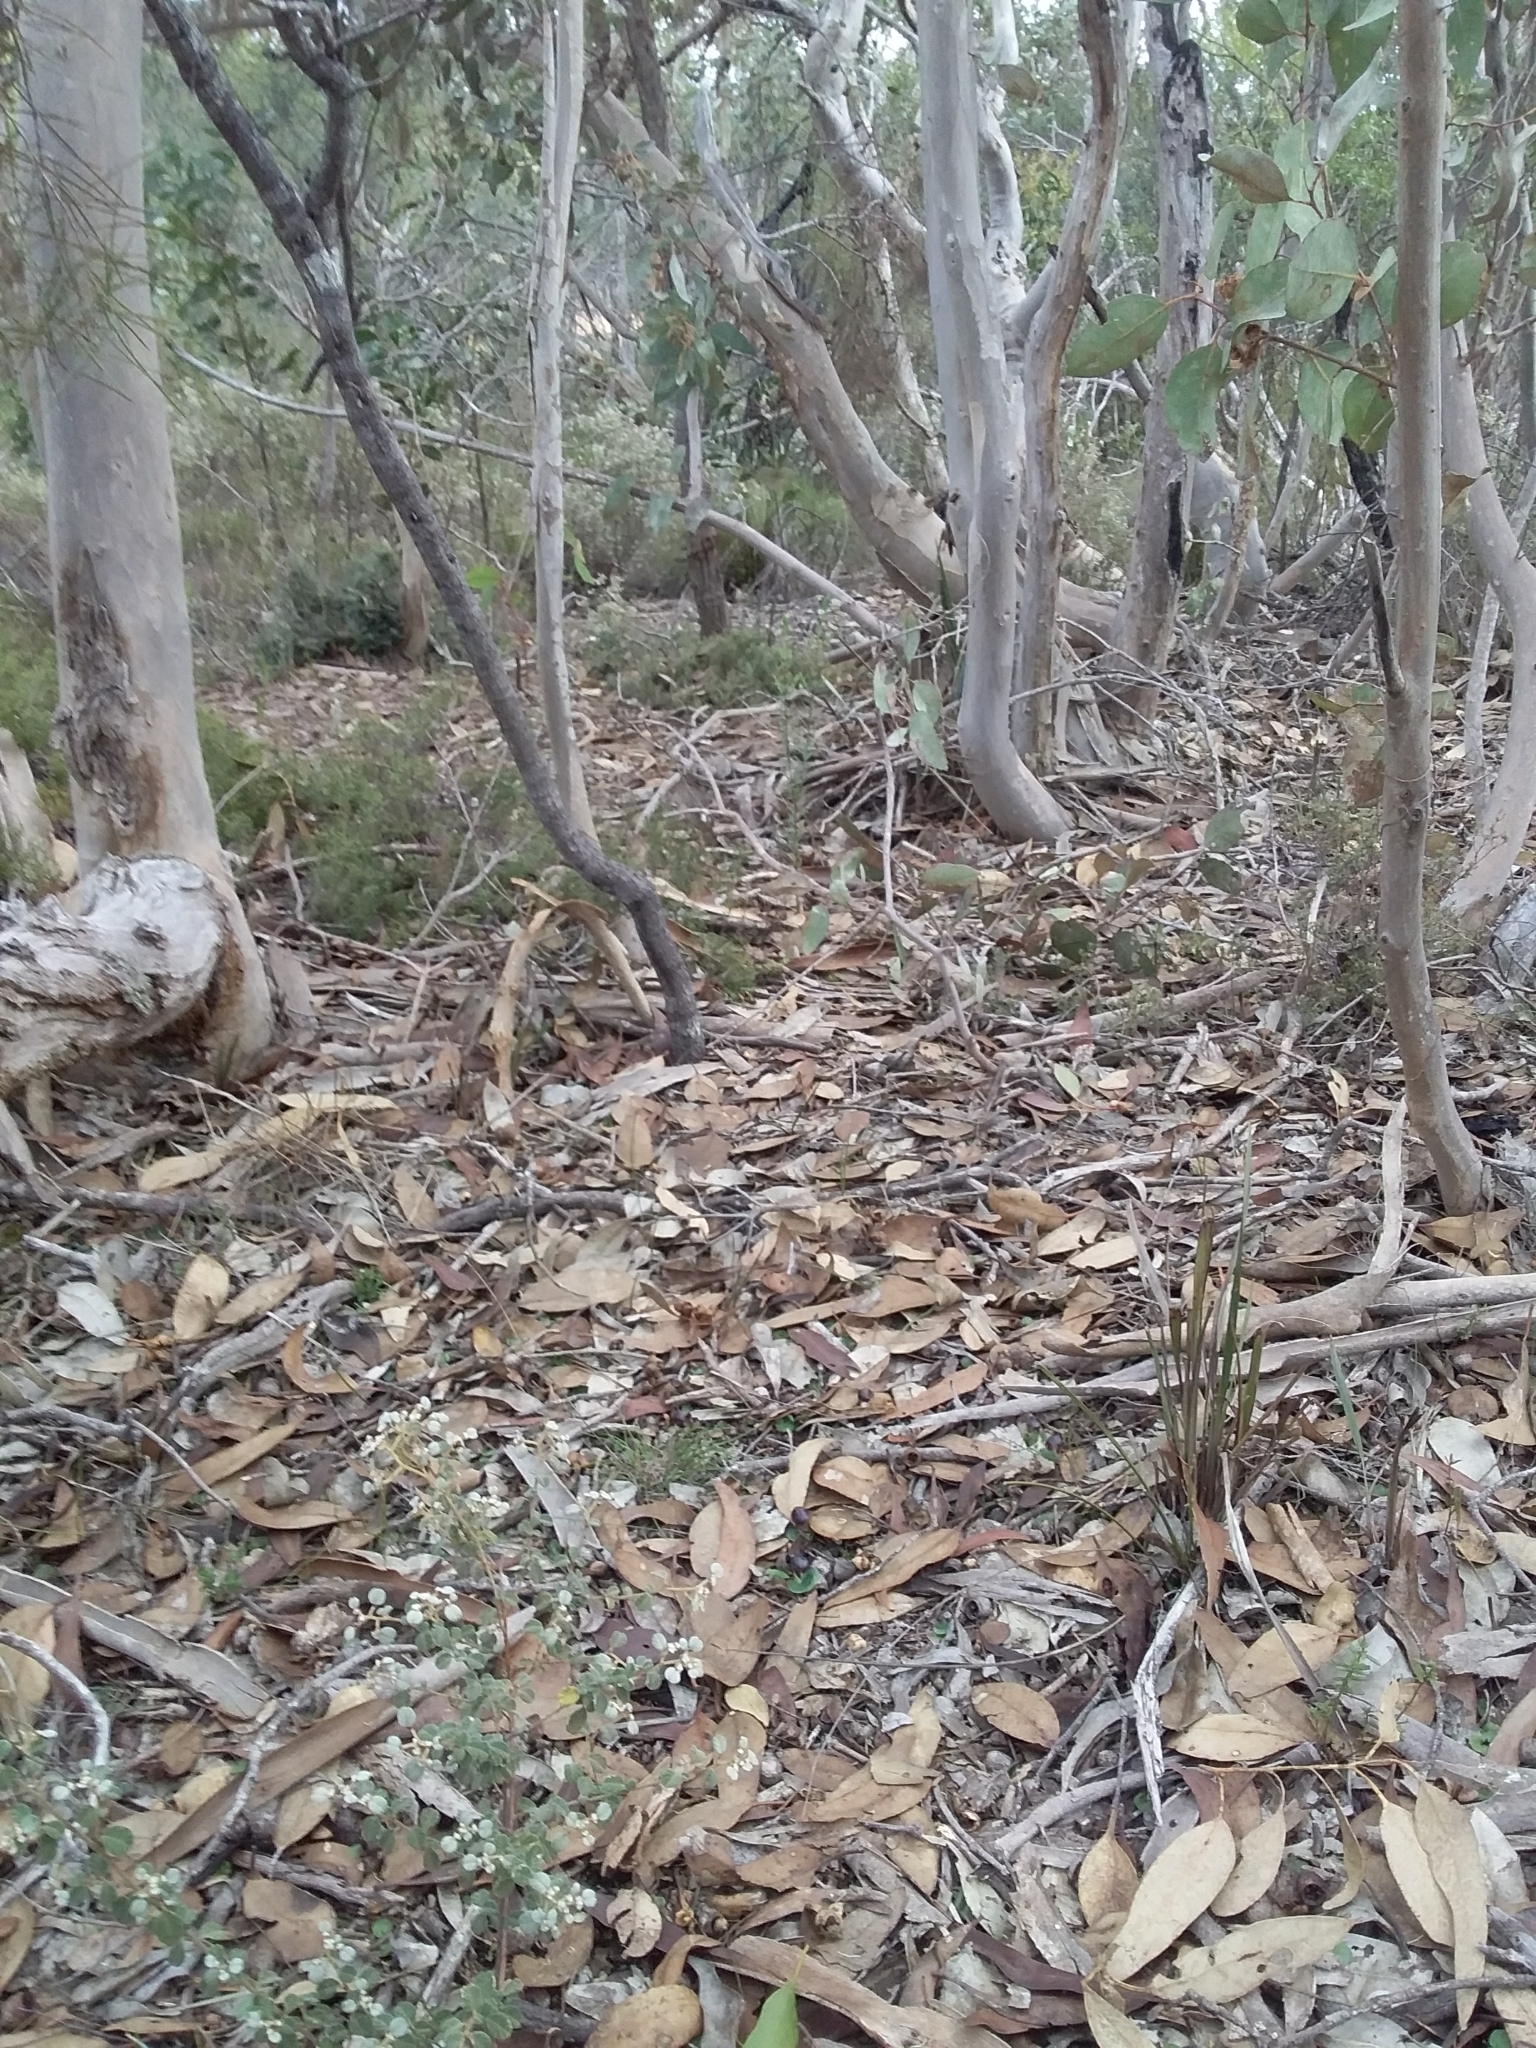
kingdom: Plantae
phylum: Tracheophyta
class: Liliopsida
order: Asparagales
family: Orchidaceae
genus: Corybas
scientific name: Corybas diemenicus
